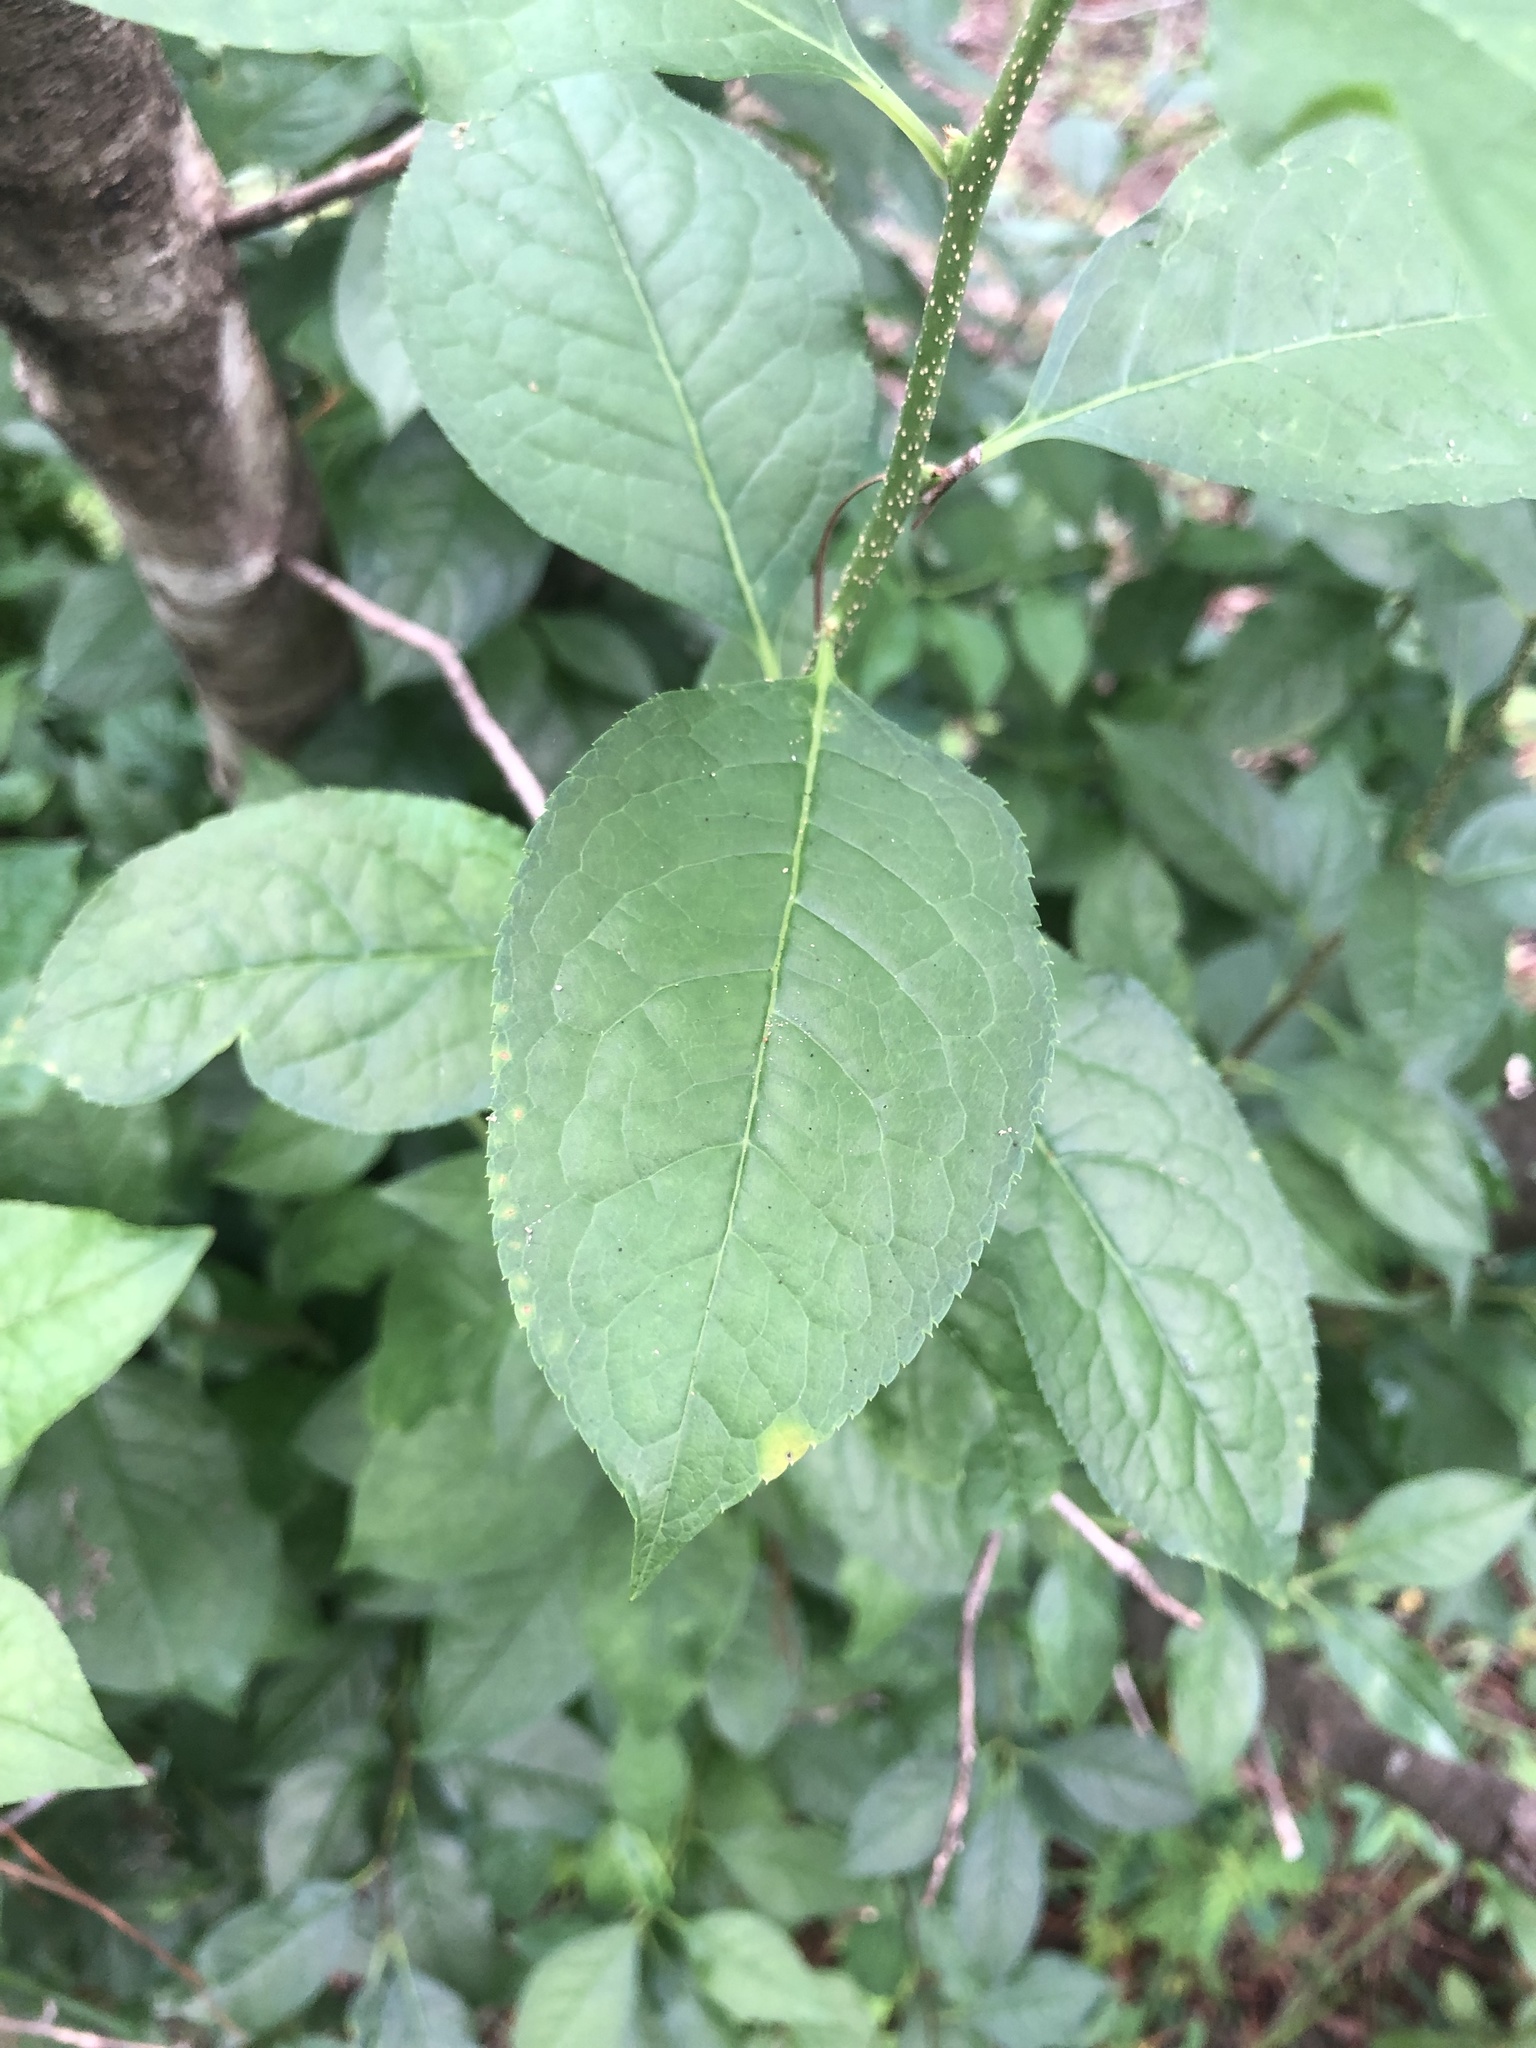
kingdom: Plantae
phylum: Tracheophyta
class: Magnoliopsida
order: Aquifoliales
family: Aquifoliaceae
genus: Ilex
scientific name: Ilex ambigua
